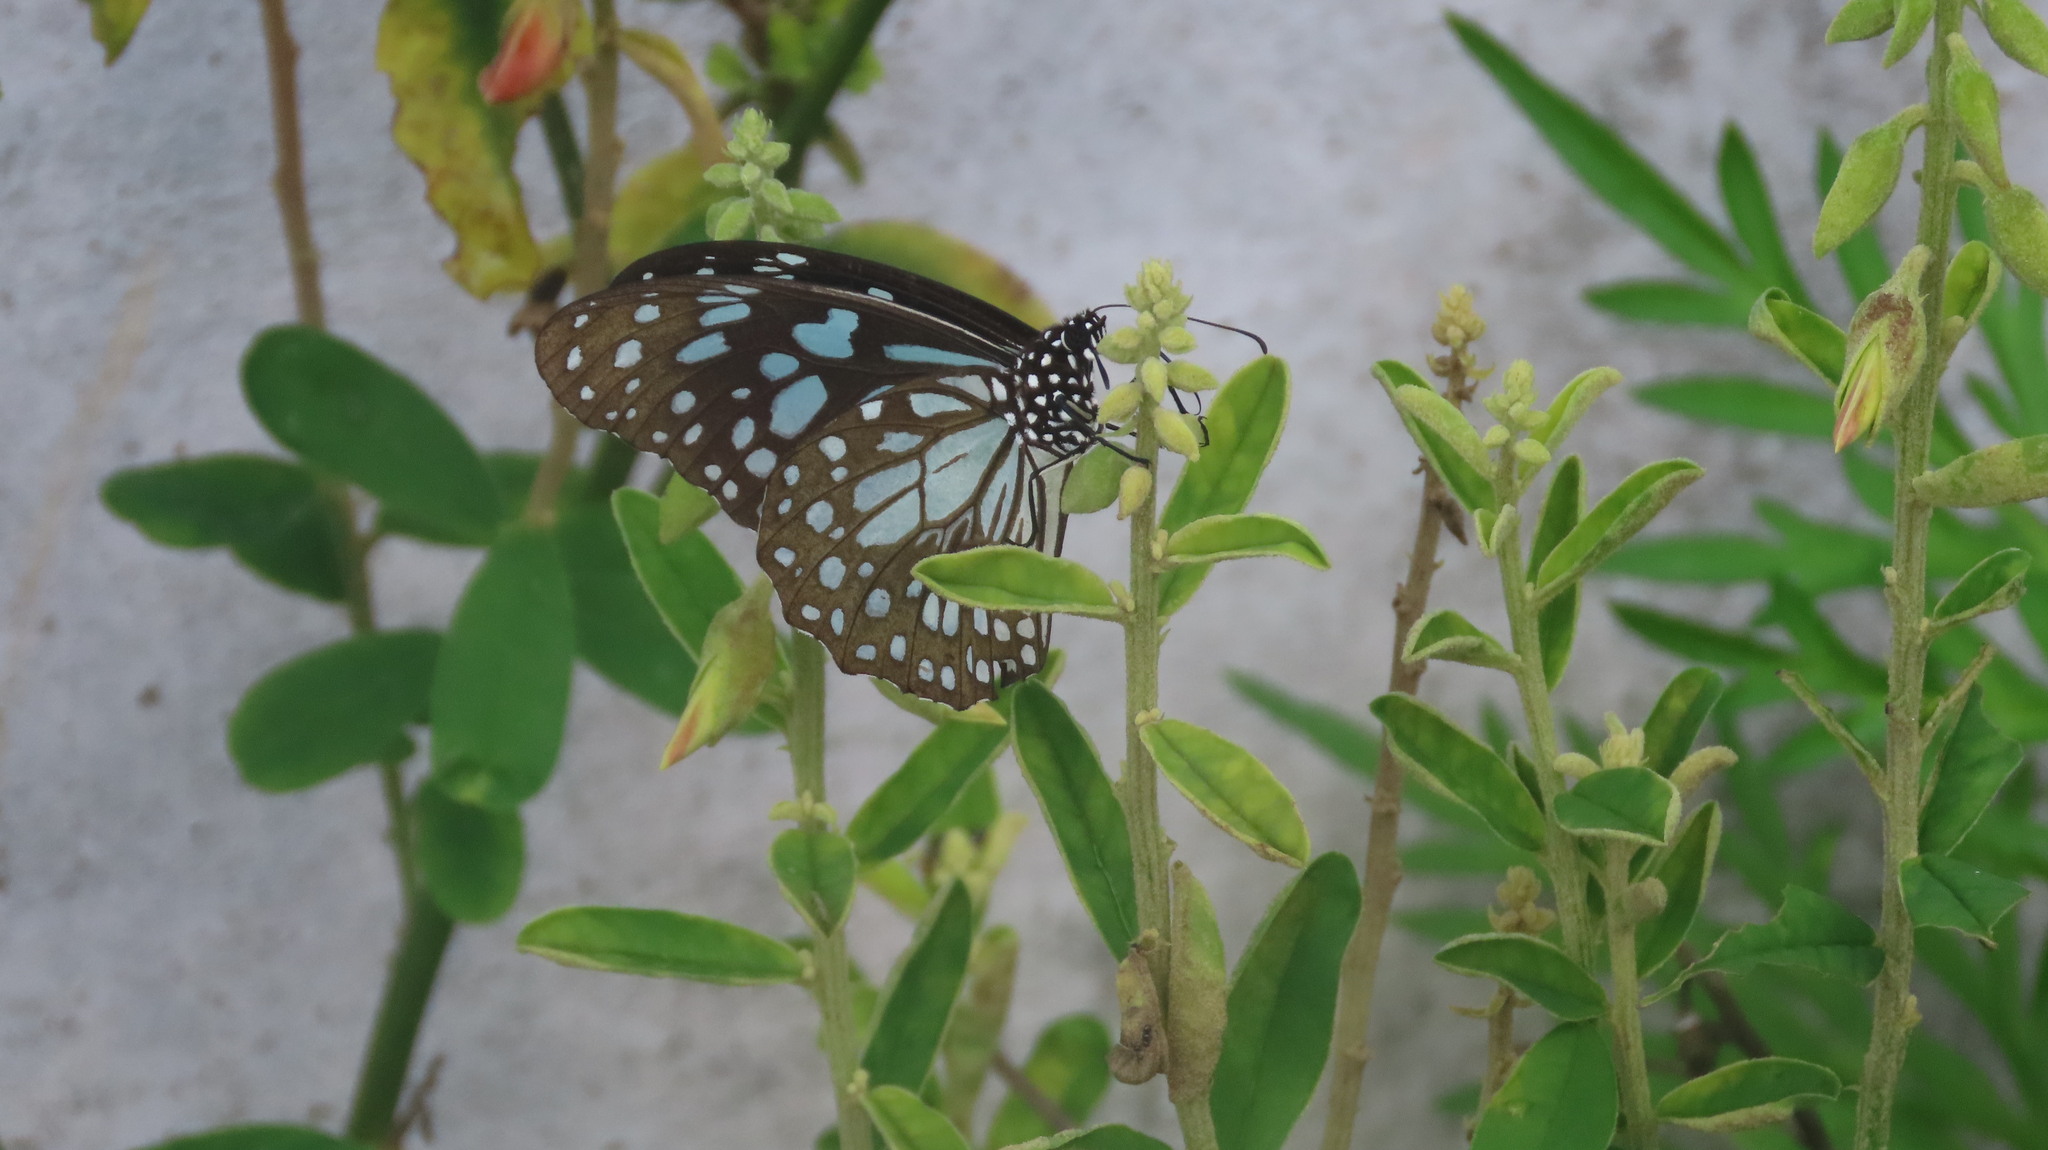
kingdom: Animalia
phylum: Arthropoda
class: Insecta
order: Lepidoptera
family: Nymphalidae
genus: Tirumala
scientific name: Tirumala limniace
